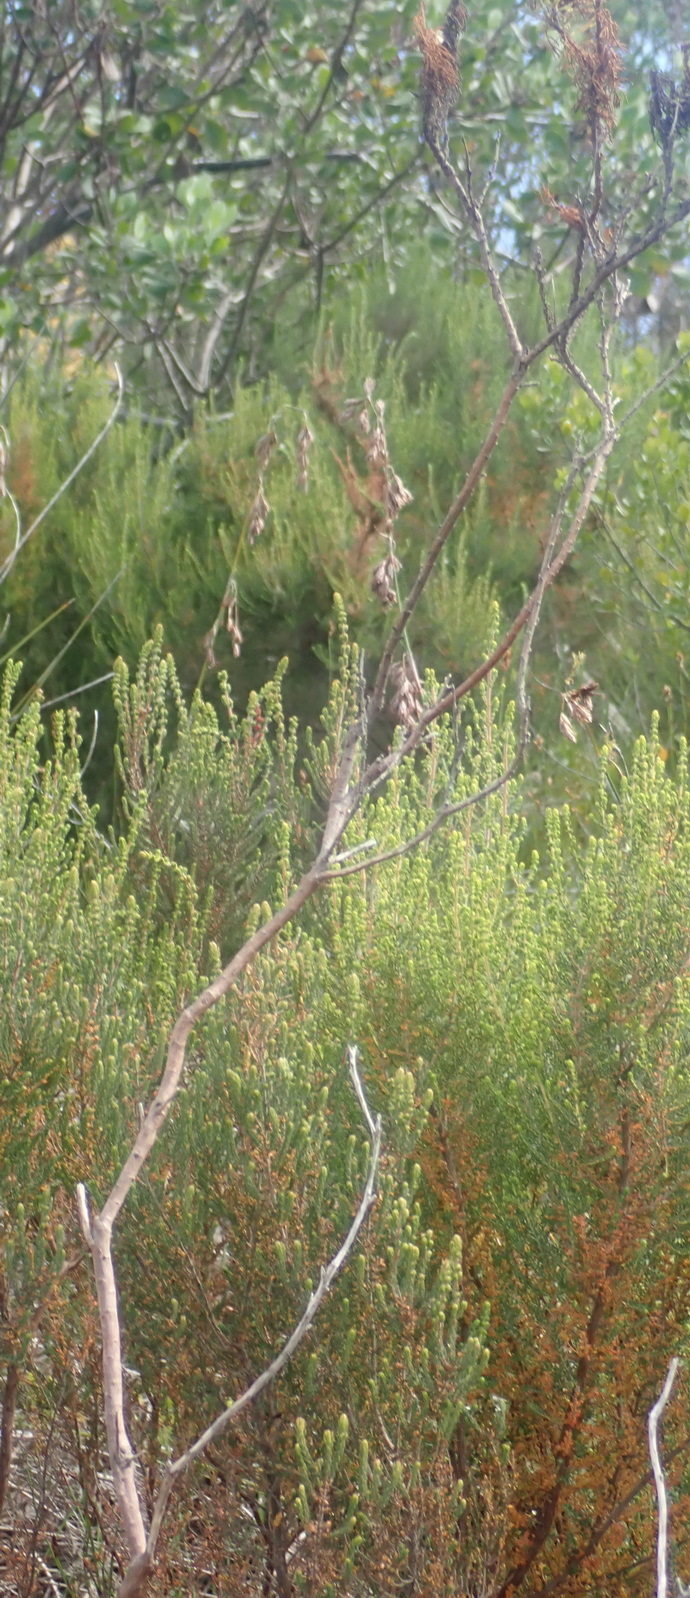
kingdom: Plantae
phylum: Tracheophyta
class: Magnoliopsida
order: Asterales
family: Asteraceae
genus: Ursinia
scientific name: Ursinia scariosa
